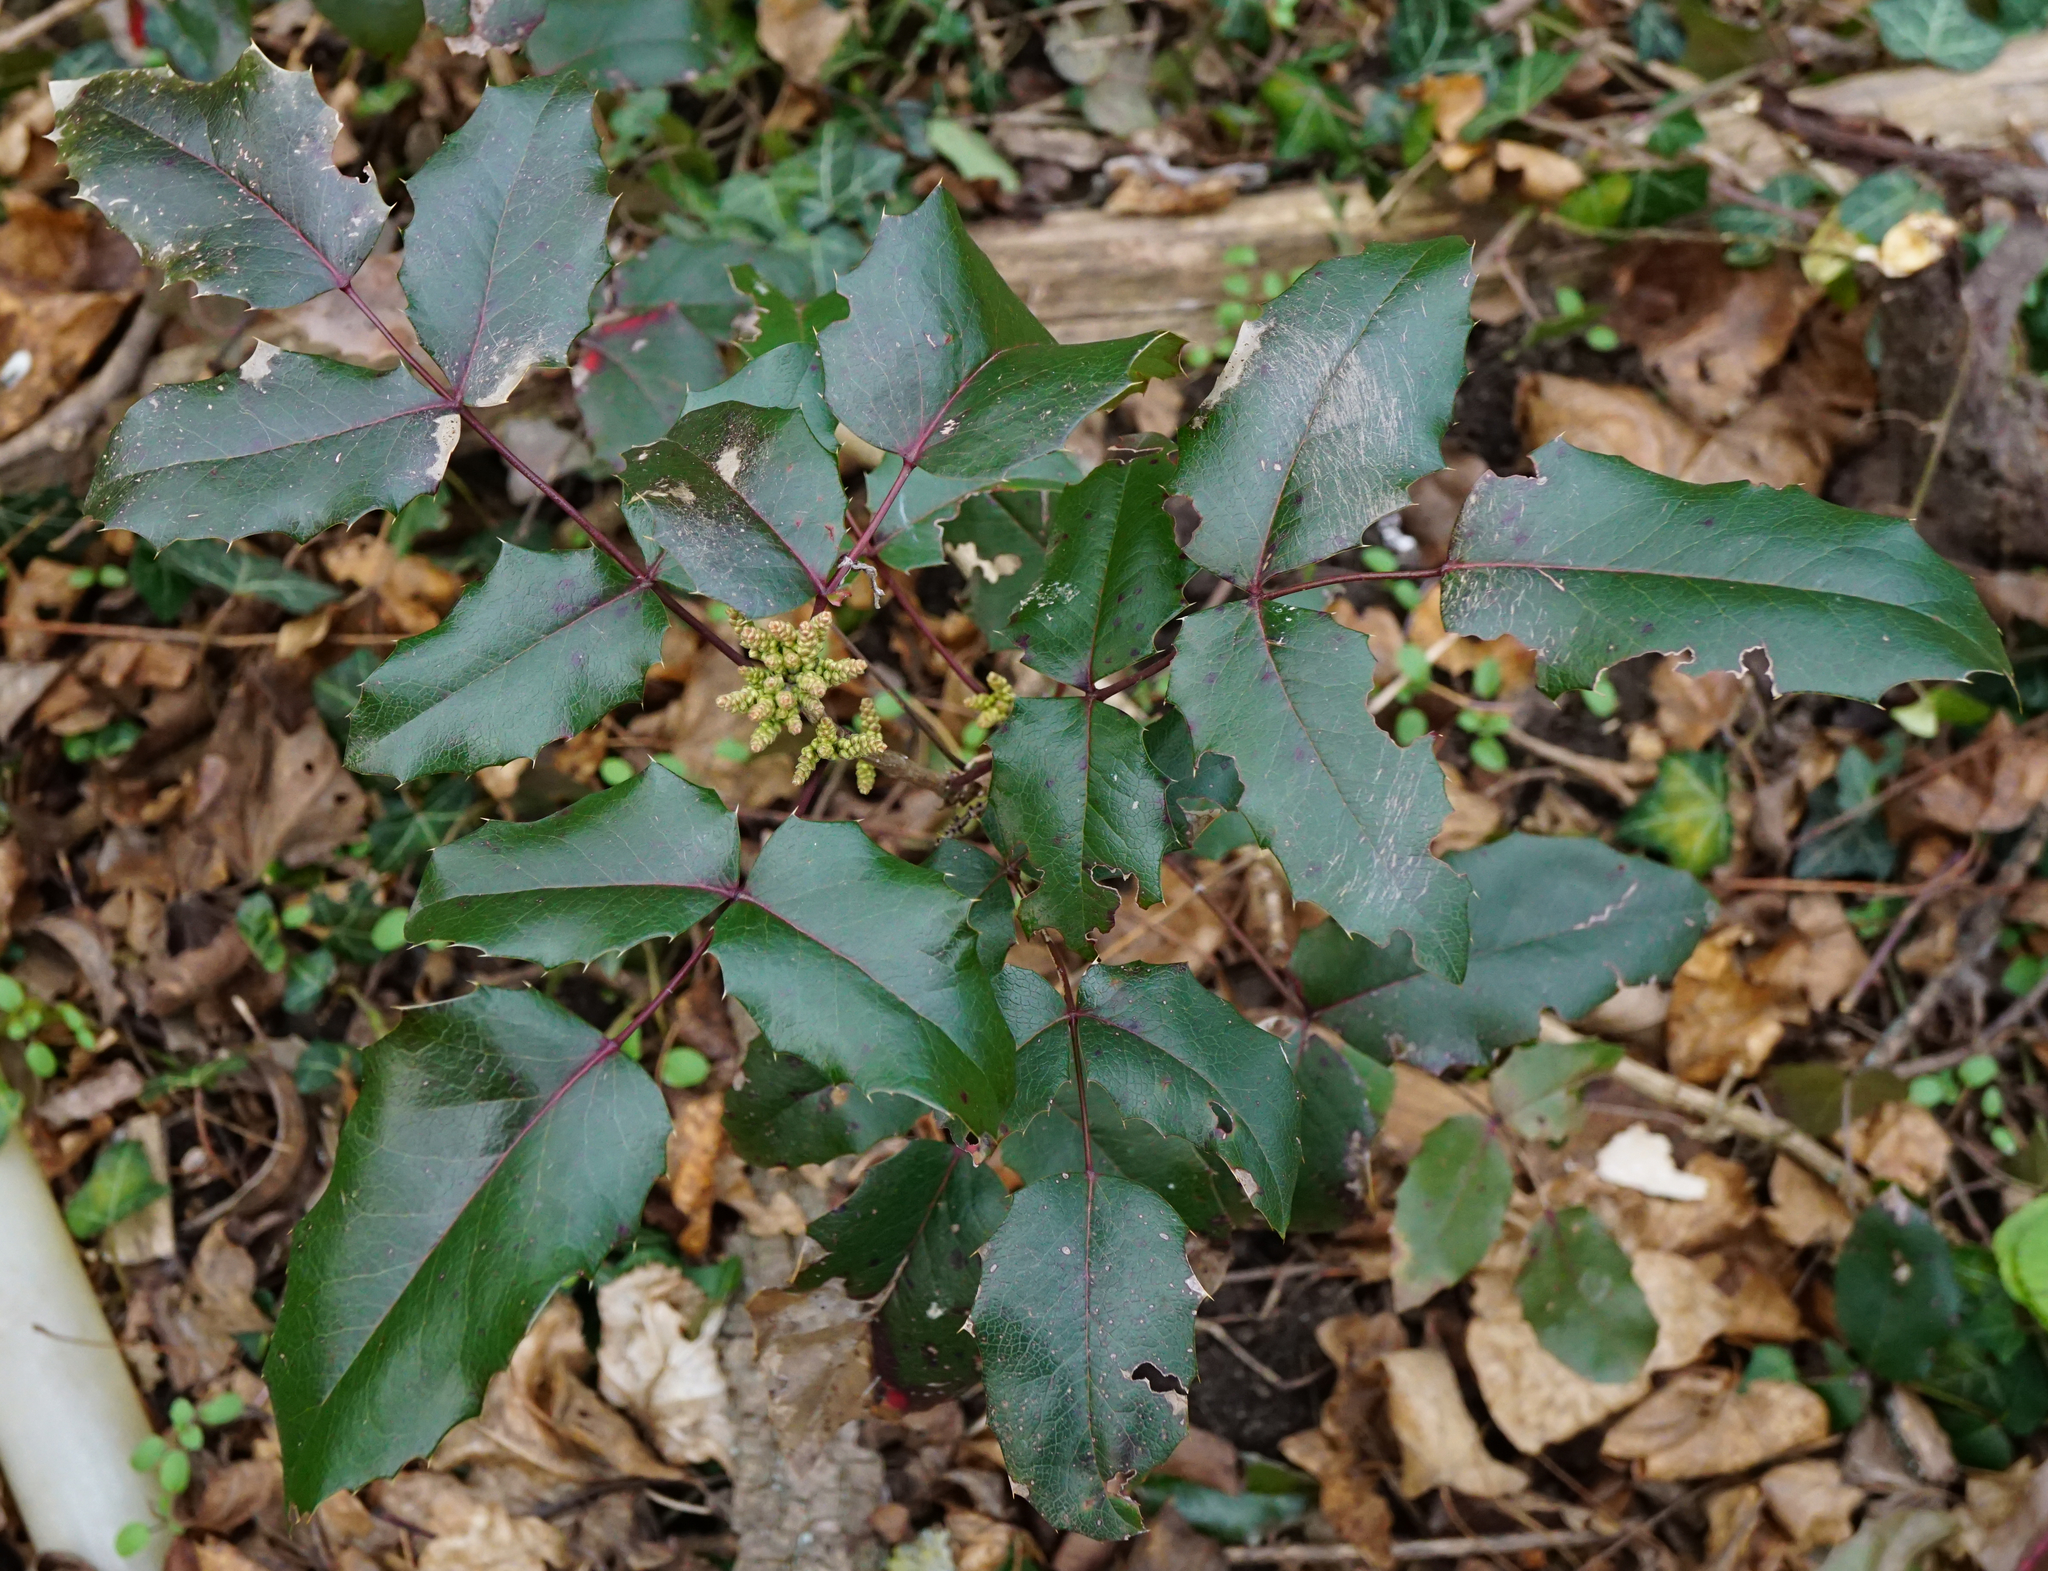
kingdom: Plantae
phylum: Tracheophyta
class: Magnoliopsida
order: Ranunculales
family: Berberidaceae
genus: Mahonia
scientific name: Mahonia aquifolium
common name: Oregon-grape
